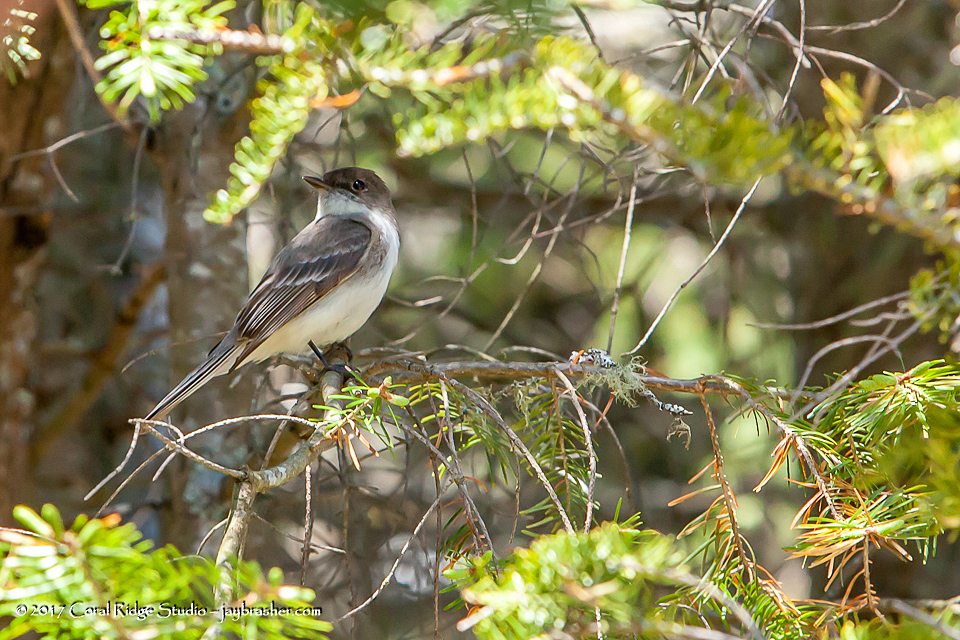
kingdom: Animalia
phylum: Chordata
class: Aves
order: Passeriformes
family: Tyrannidae
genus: Sayornis
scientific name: Sayornis phoebe
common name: Eastern phoebe
